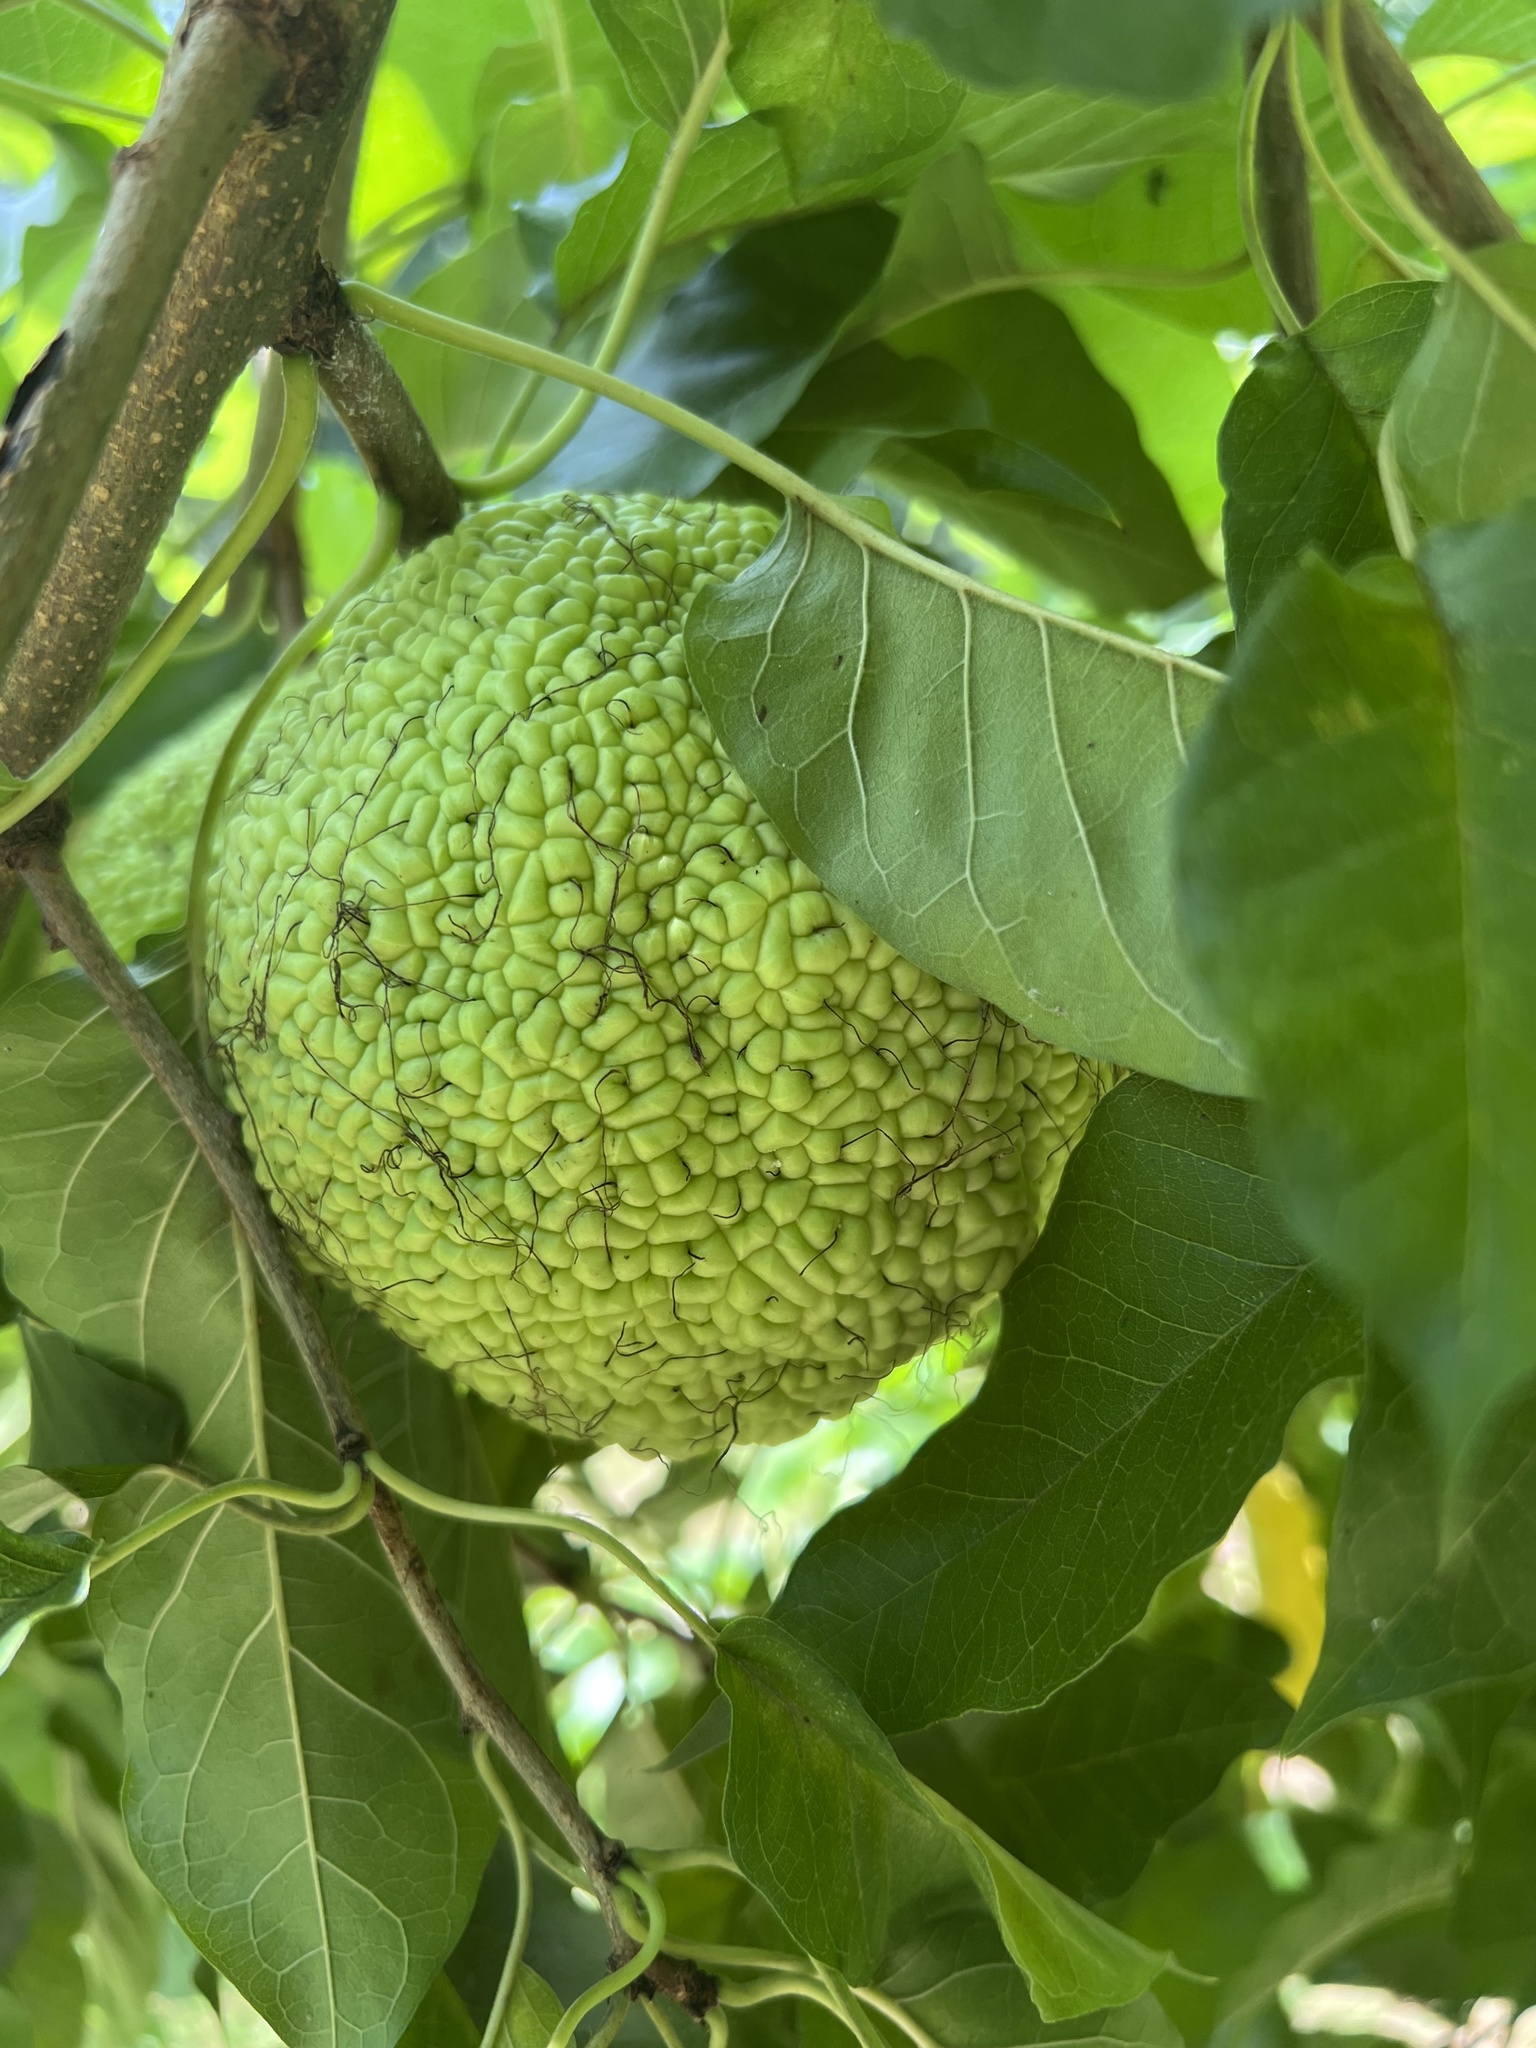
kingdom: Plantae
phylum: Tracheophyta
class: Magnoliopsida
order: Rosales
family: Moraceae
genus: Maclura
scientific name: Maclura pomifera
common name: Osage-orange
